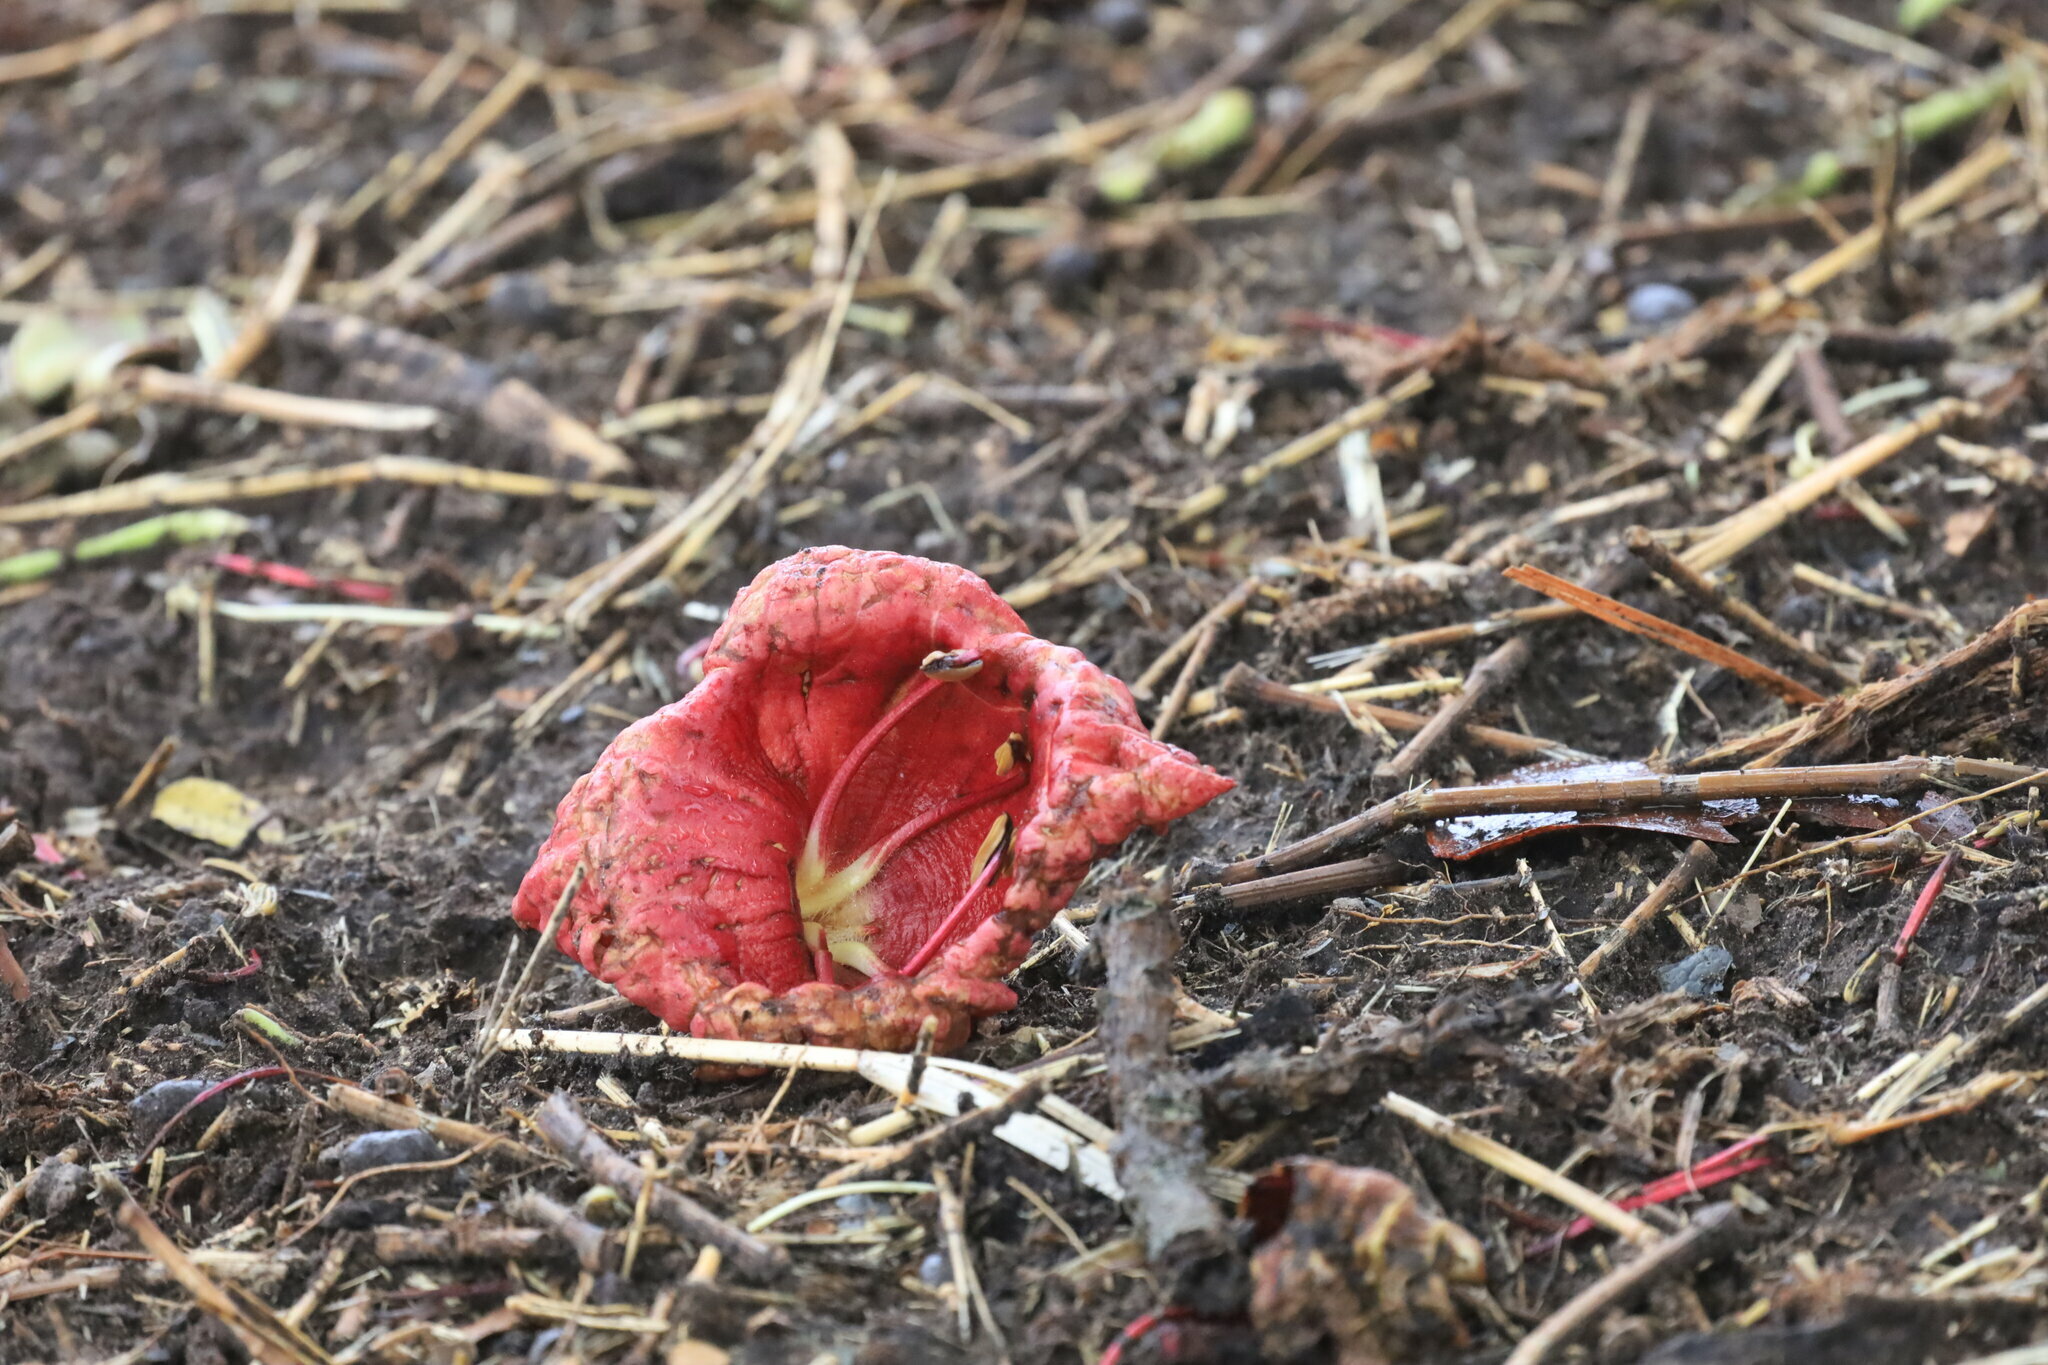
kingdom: Plantae
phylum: Tracheophyta
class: Magnoliopsida
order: Lamiales
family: Bignoniaceae
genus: Kigelia
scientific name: Kigelia africana
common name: Sausage tree
